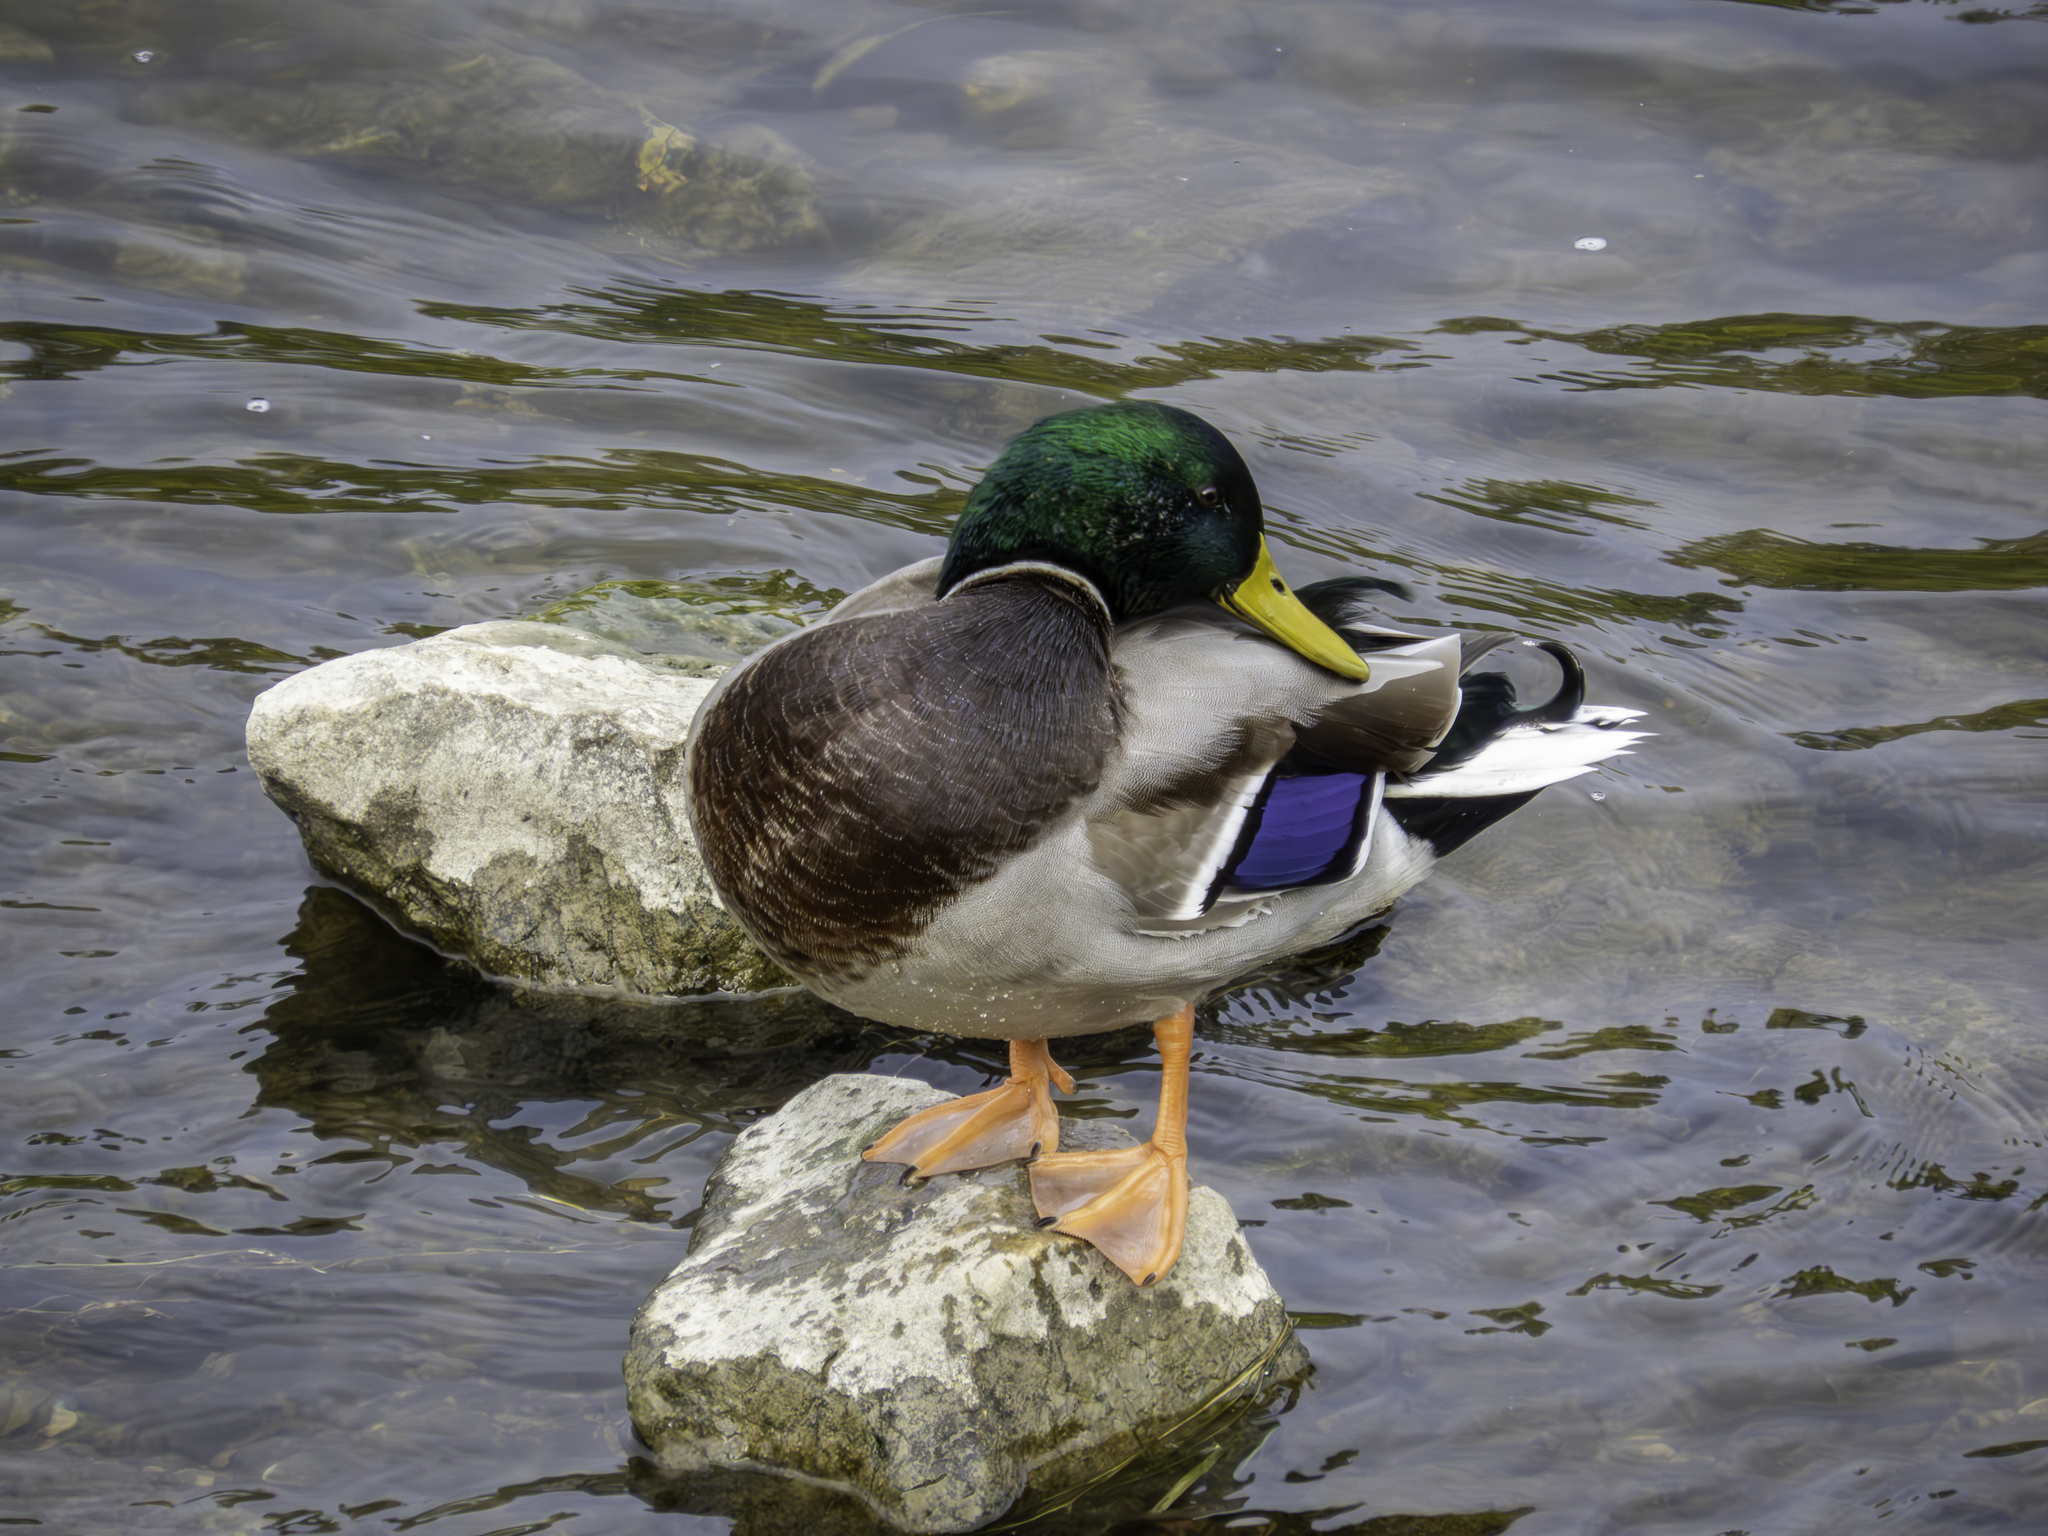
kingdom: Animalia
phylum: Chordata
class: Aves
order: Anseriformes
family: Anatidae
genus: Anas
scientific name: Anas platyrhynchos
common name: Mallard
